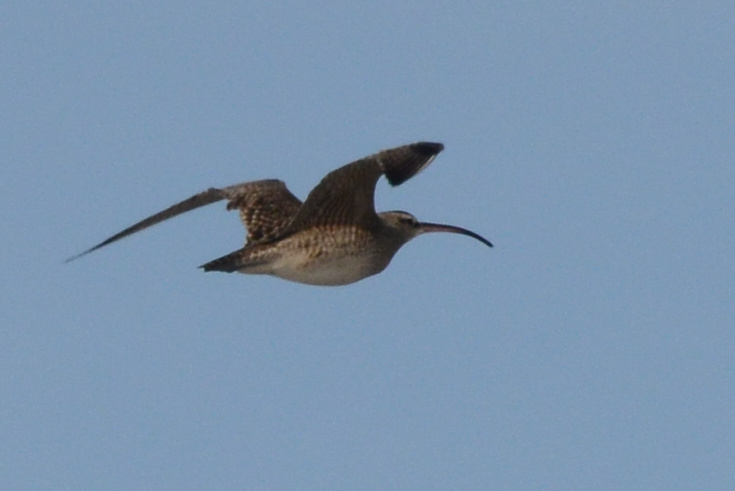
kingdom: Animalia
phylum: Chordata
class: Aves
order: Charadriiformes
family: Scolopacidae
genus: Numenius
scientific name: Numenius phaeopus
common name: Whimbrel
